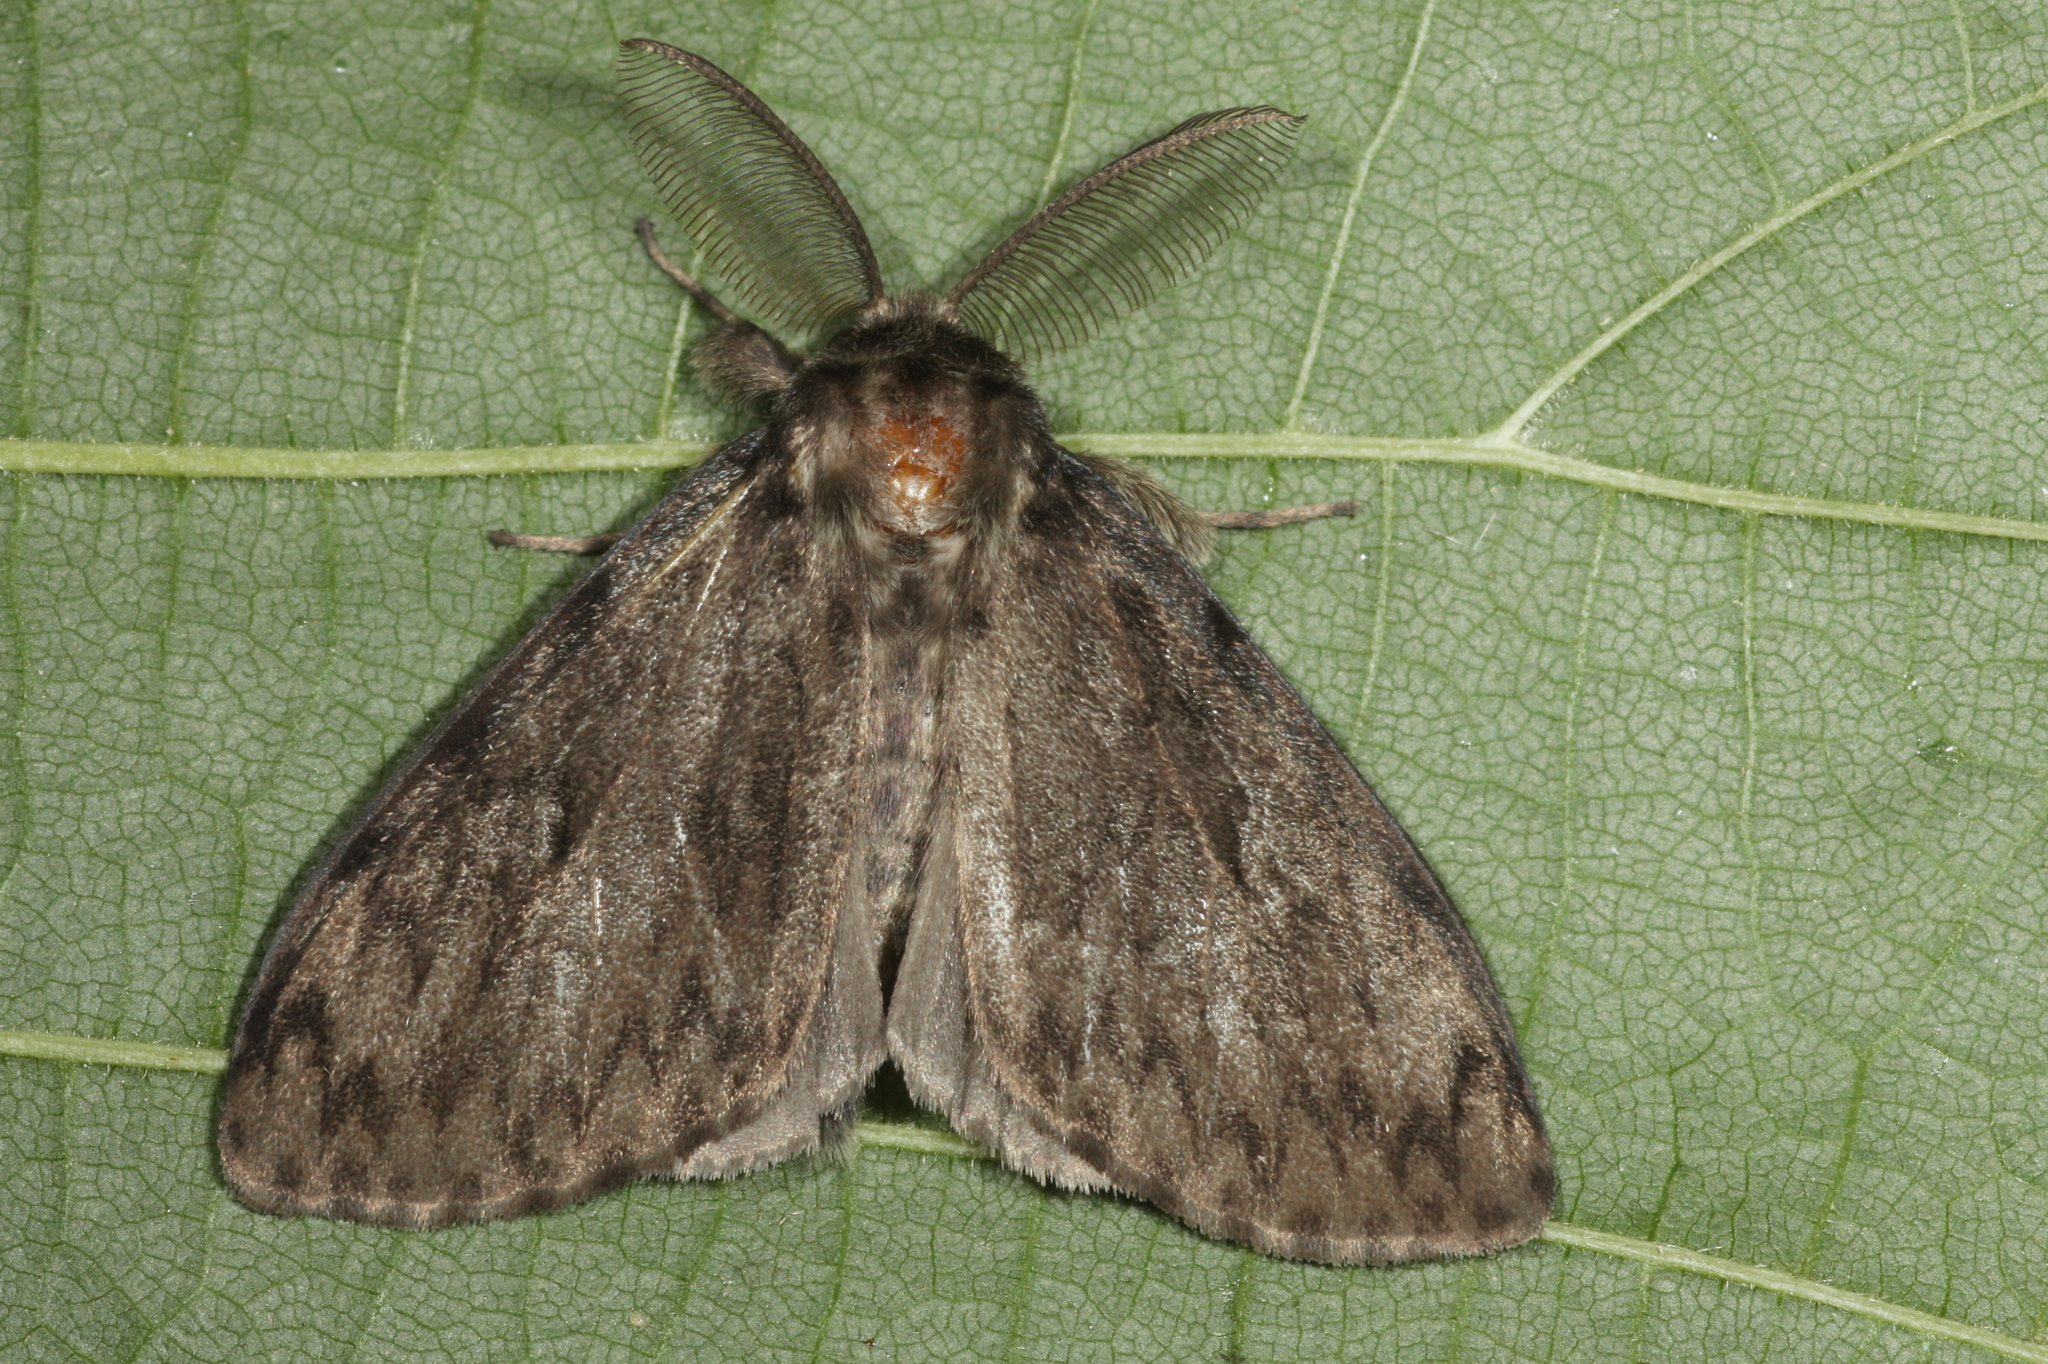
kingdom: Animalia
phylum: Arthropoda
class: Insecta
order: Lepidoptera
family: Erebidae
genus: Lymantria
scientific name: Lymantria monacha
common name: Black arches
